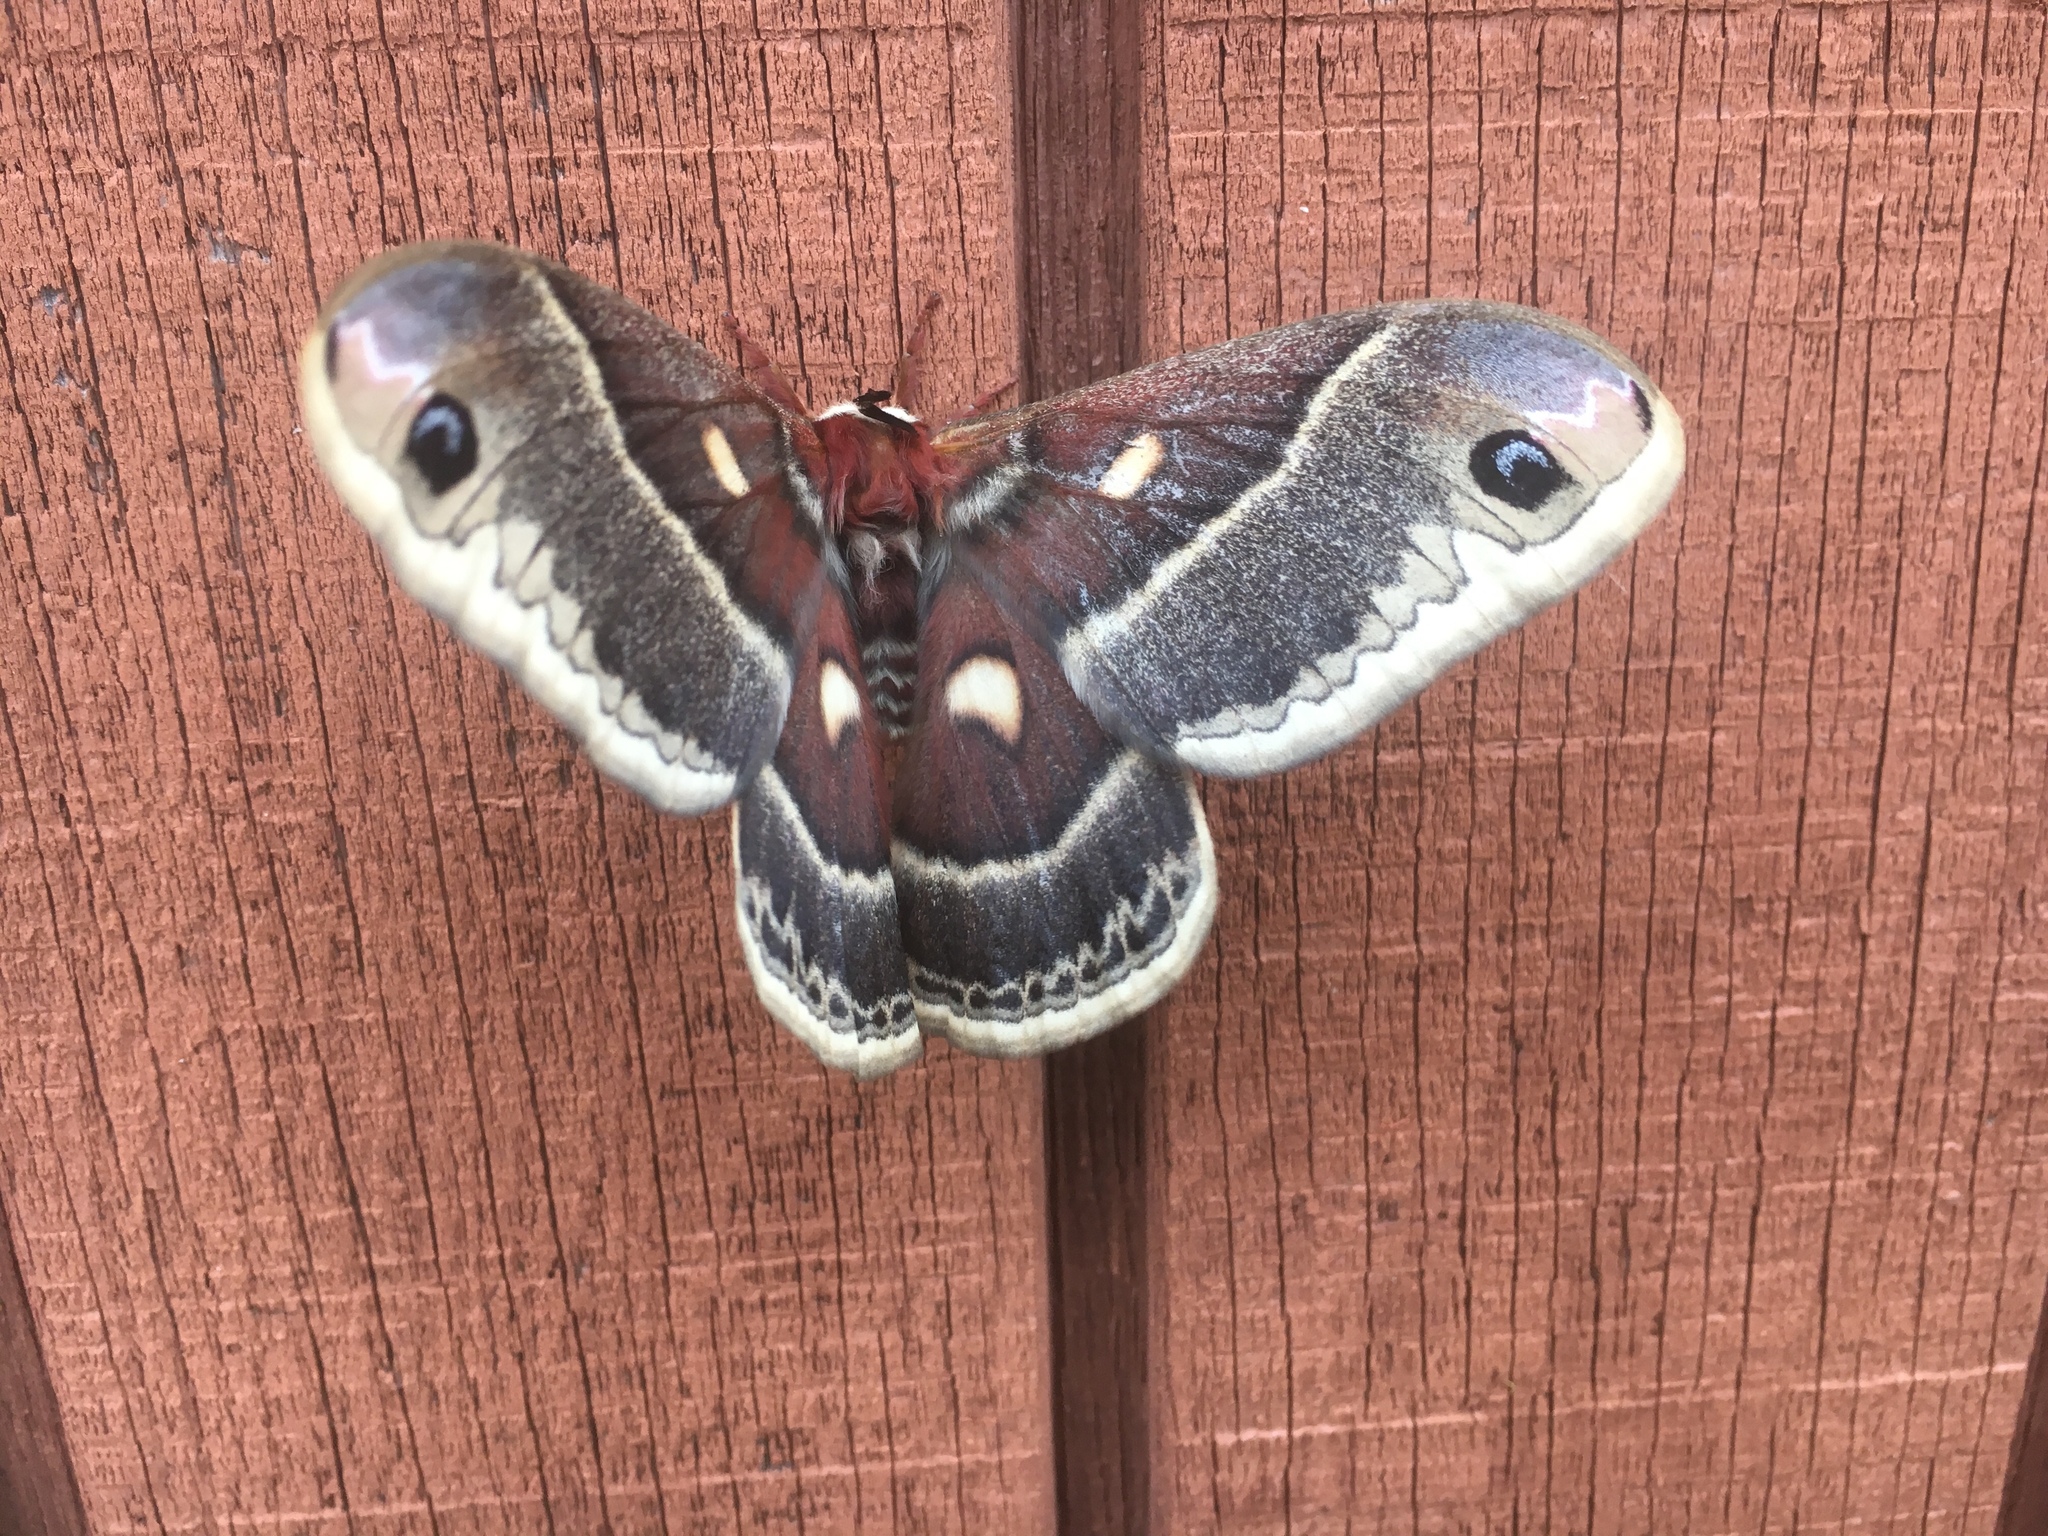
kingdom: Animalia
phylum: Arthropoda
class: Insecta
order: Lepidoptera
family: Saturniidae
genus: Hyalophora
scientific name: Hyalophora columbia
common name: Columbia silkmoth
